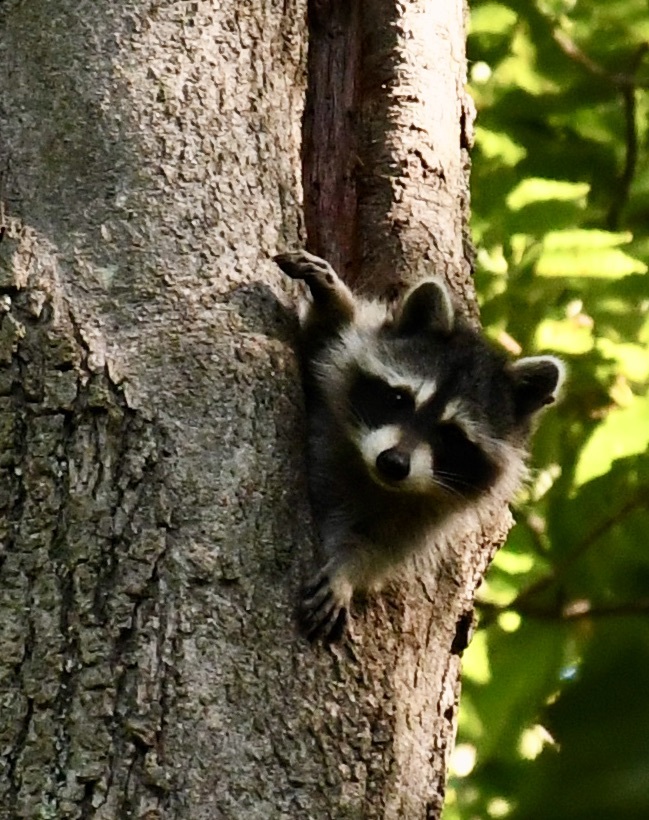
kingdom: Animalia
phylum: Chordata
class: Mammalia
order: Carnivora
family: Procyonidae
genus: Procyon
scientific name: Procyon lotor
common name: Raccoon
